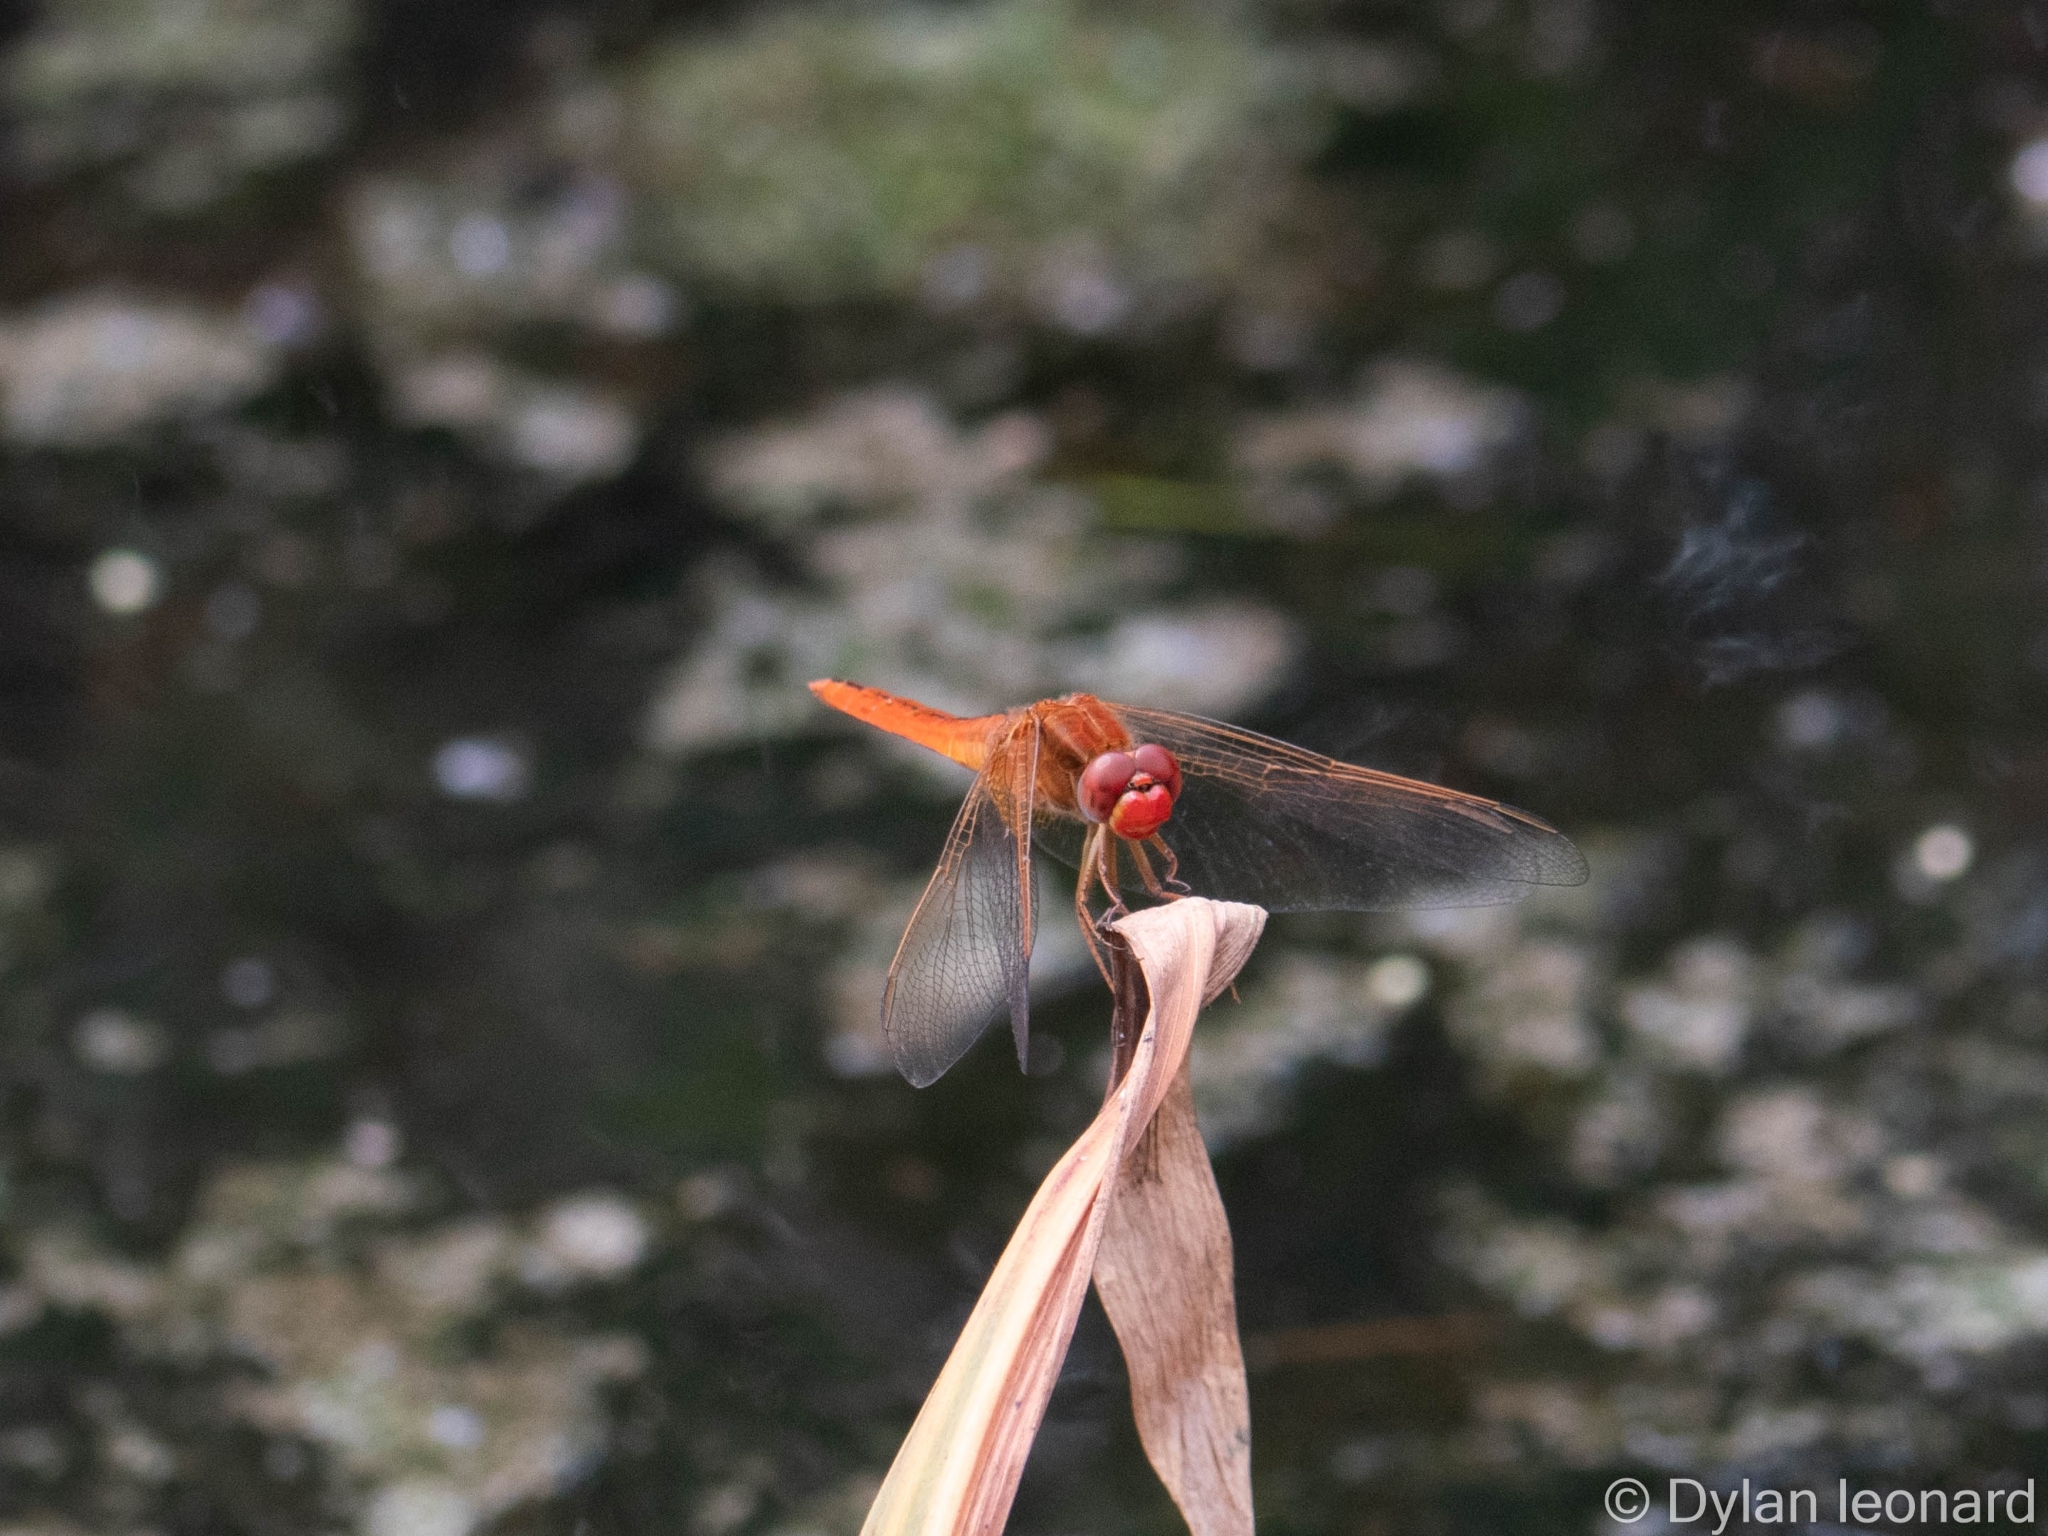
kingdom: Animalia
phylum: Arthropoda
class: Insecta
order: Odonata
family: Libellulidae
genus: Crocothemis
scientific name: Crocothemis erythraea
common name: Scarlet dragonfly
